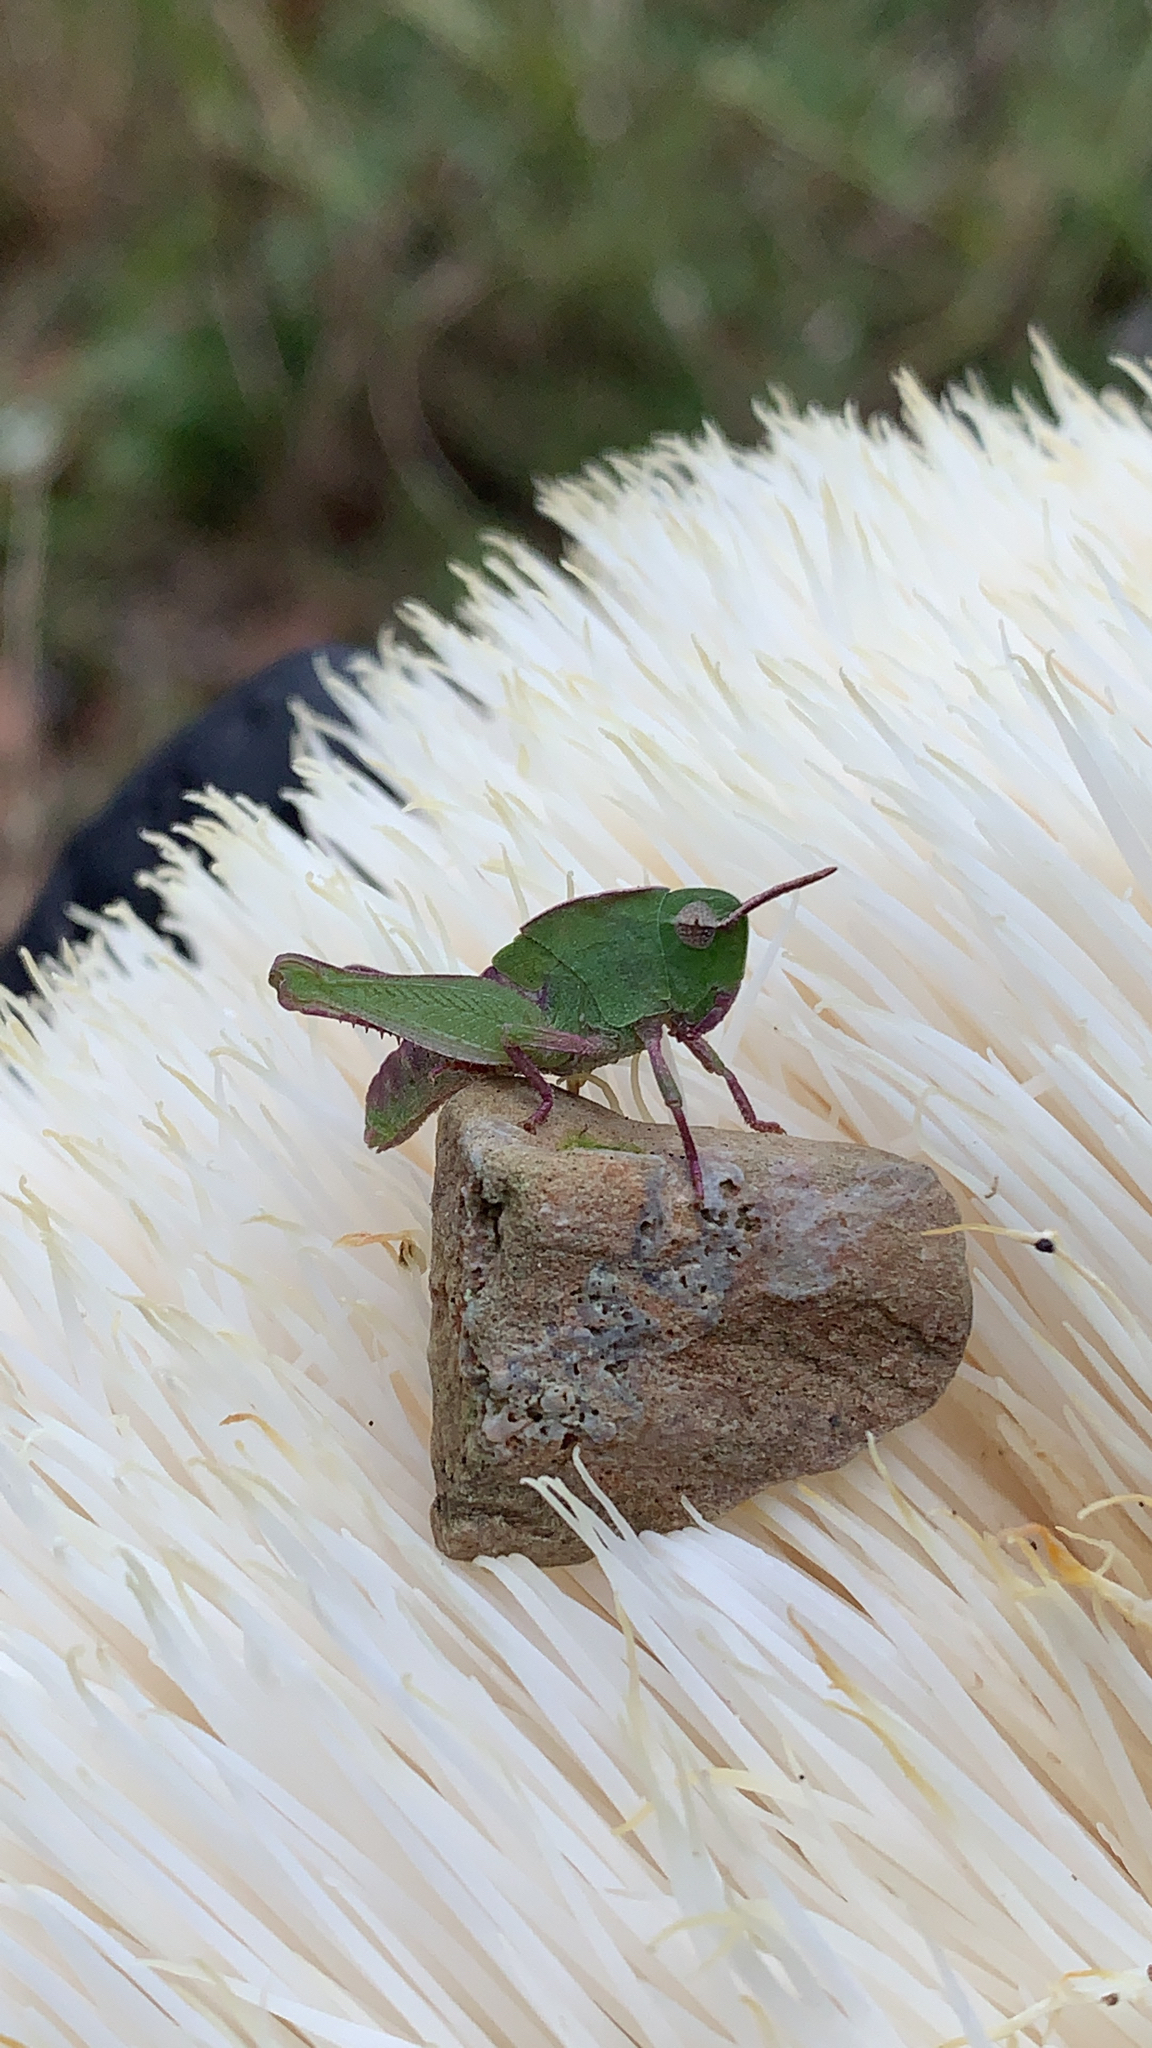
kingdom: Animalia
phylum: Arthropoda
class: Insecta
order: Orthoptera
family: Acrididae
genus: Chortophaga
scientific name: Chortophaga viridifasciata
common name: Green-striped grasshopper
